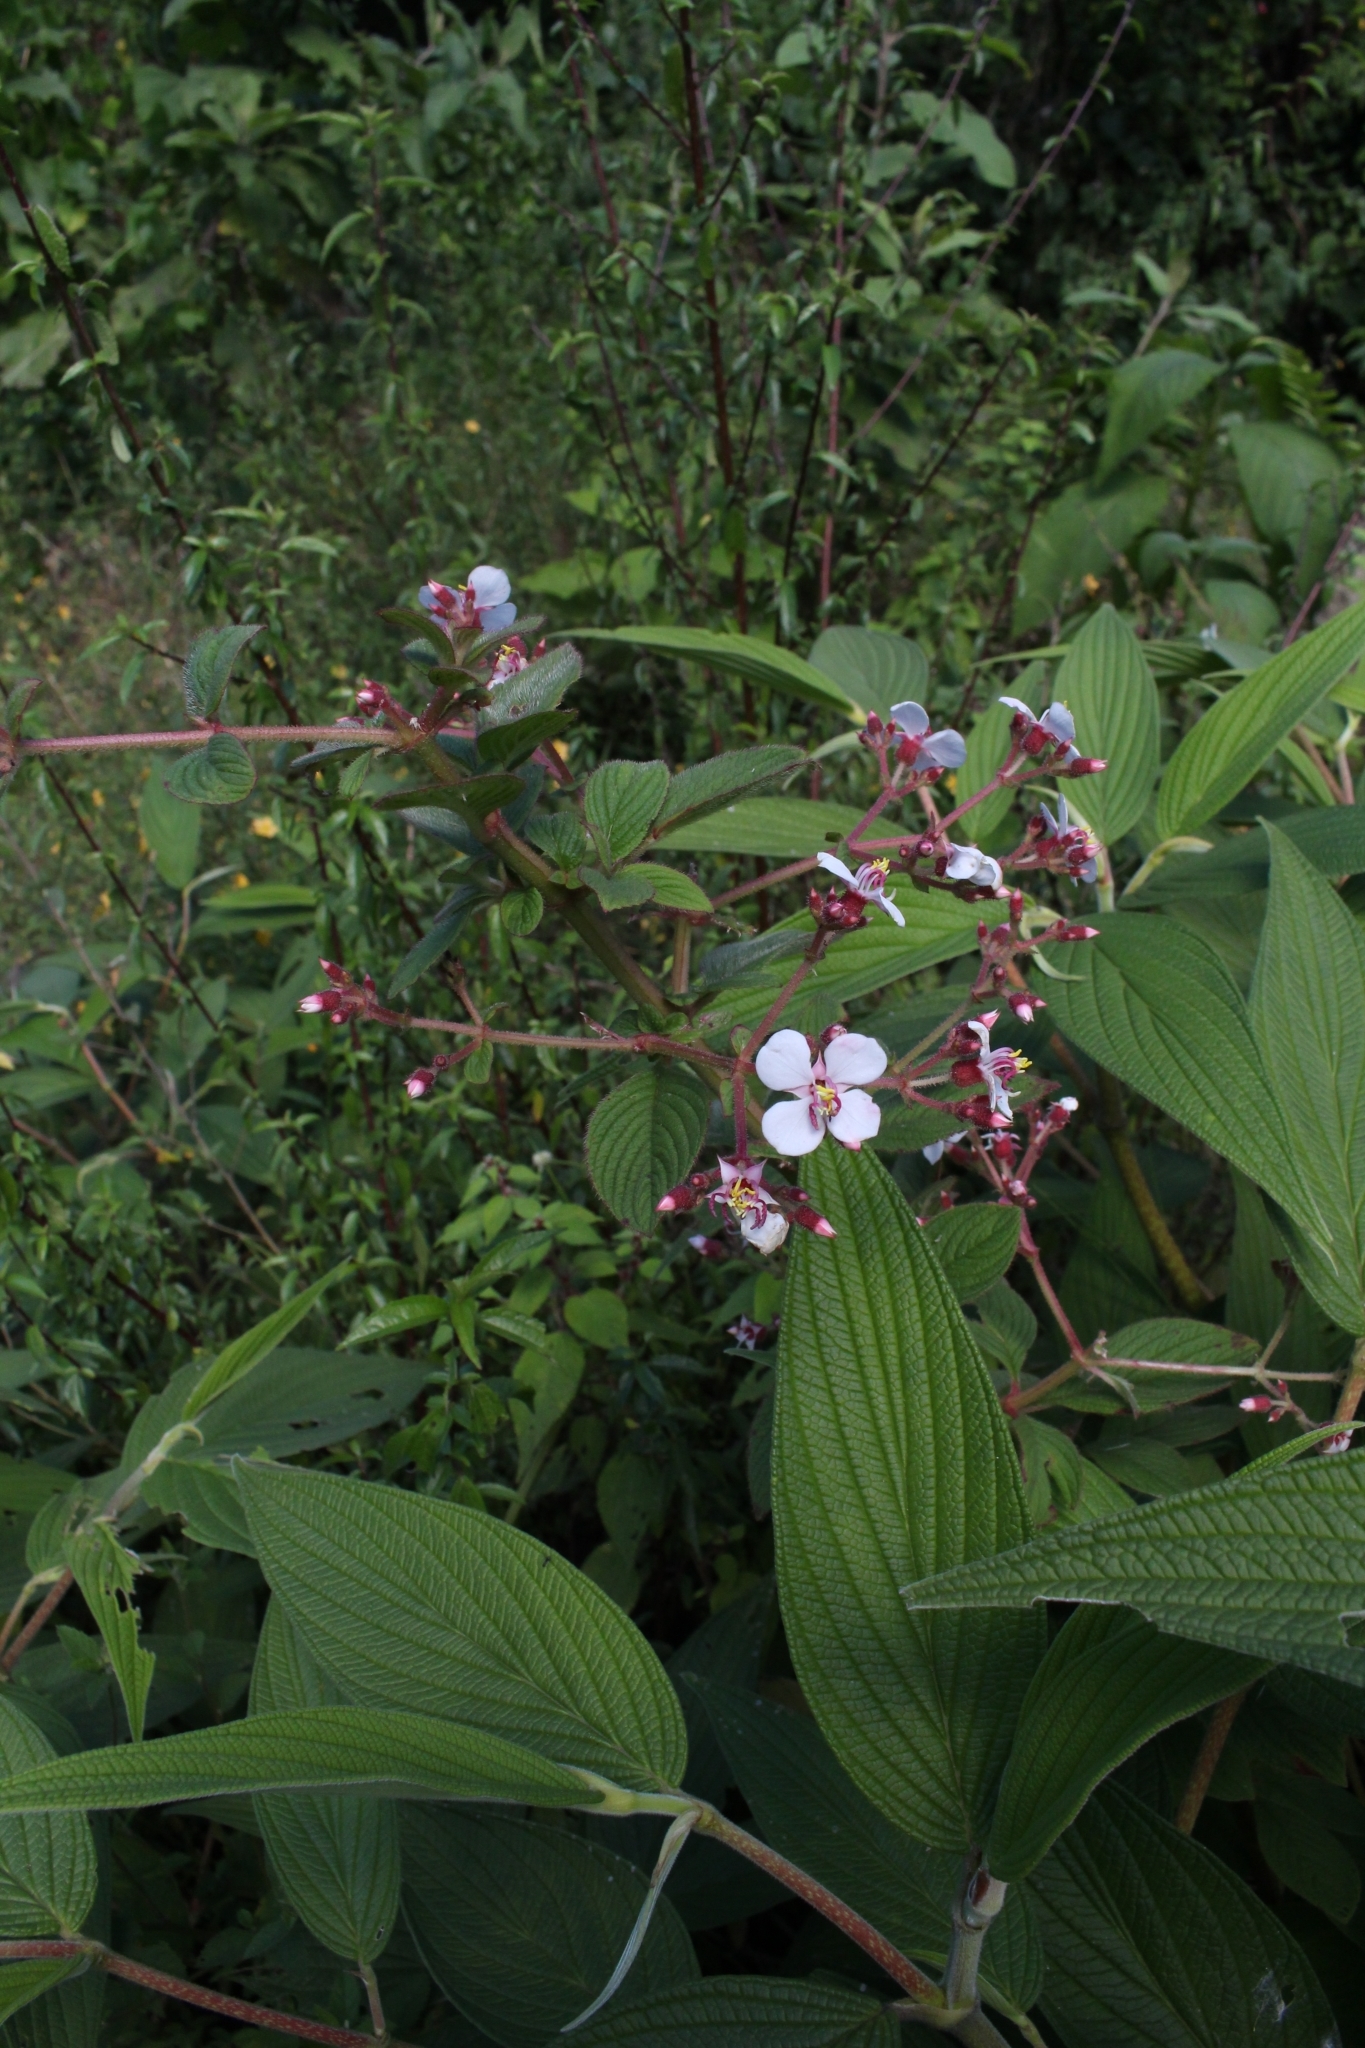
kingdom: Plantae
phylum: Tracheophyta
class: Magnoliopsida
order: Myrtales
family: Melastomataceae
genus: Heterocentron
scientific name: Heterocentron glandulosum
